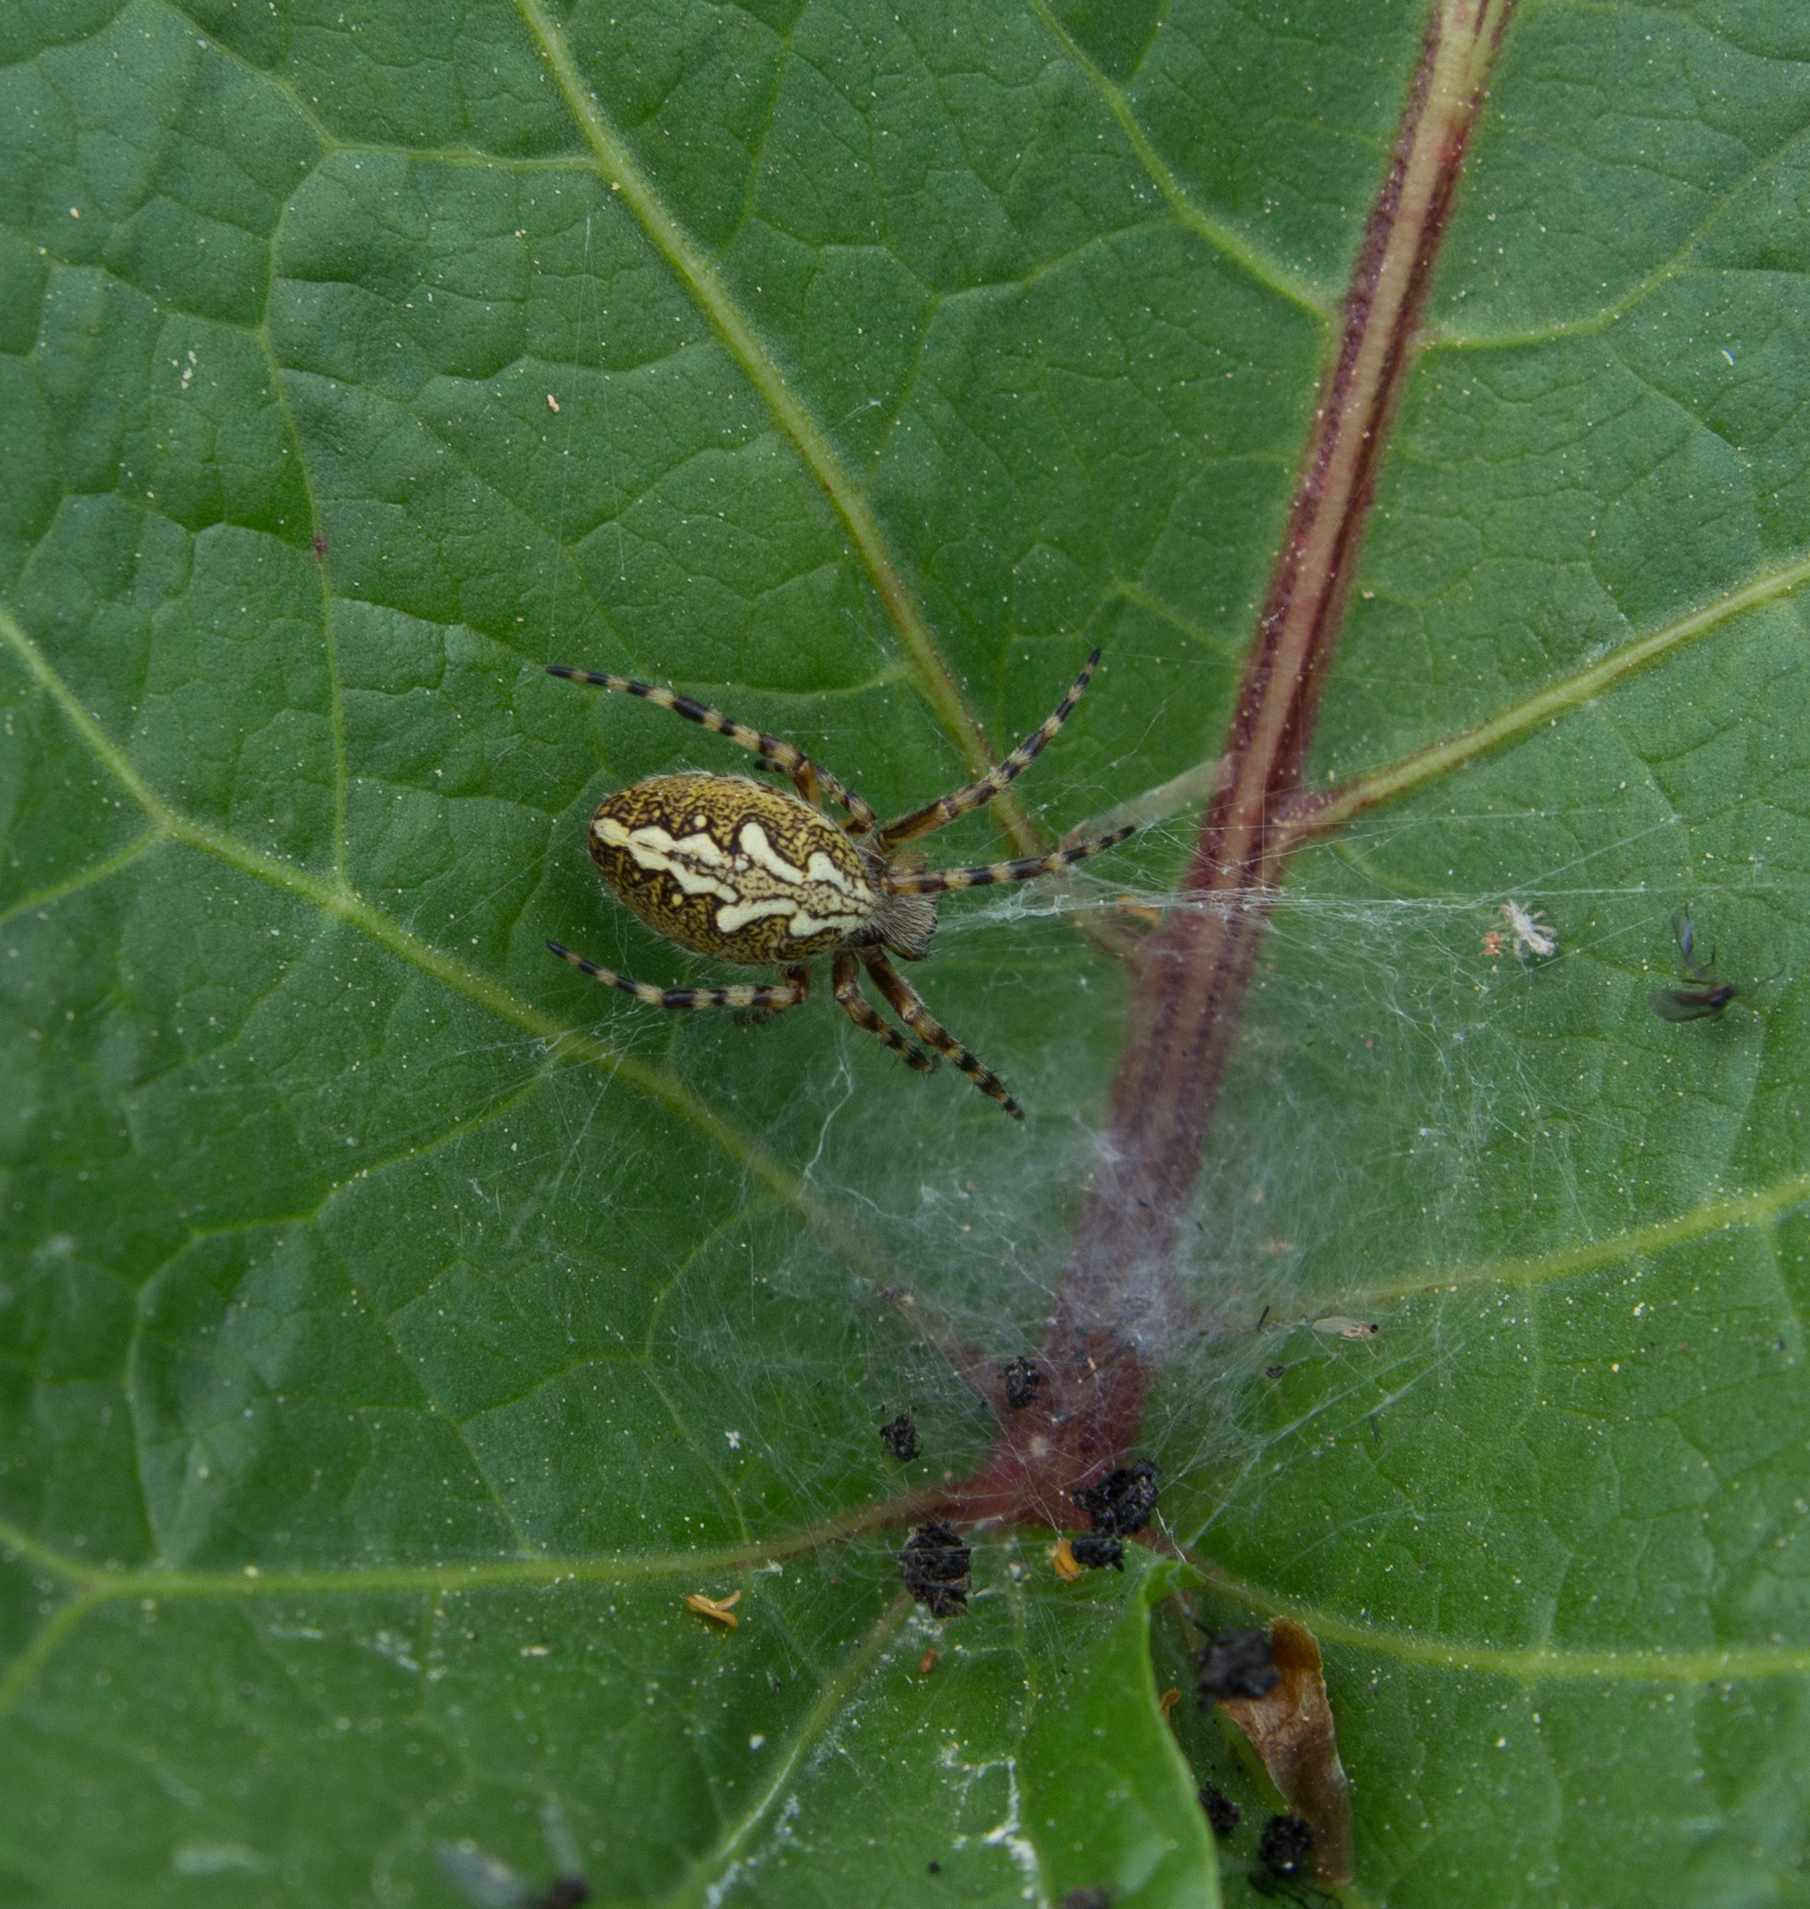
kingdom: Animalia
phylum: Arthropoda
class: Arachnida
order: Araneae
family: Araneidae
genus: Aculepeira
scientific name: Aculepeira ceropegia
